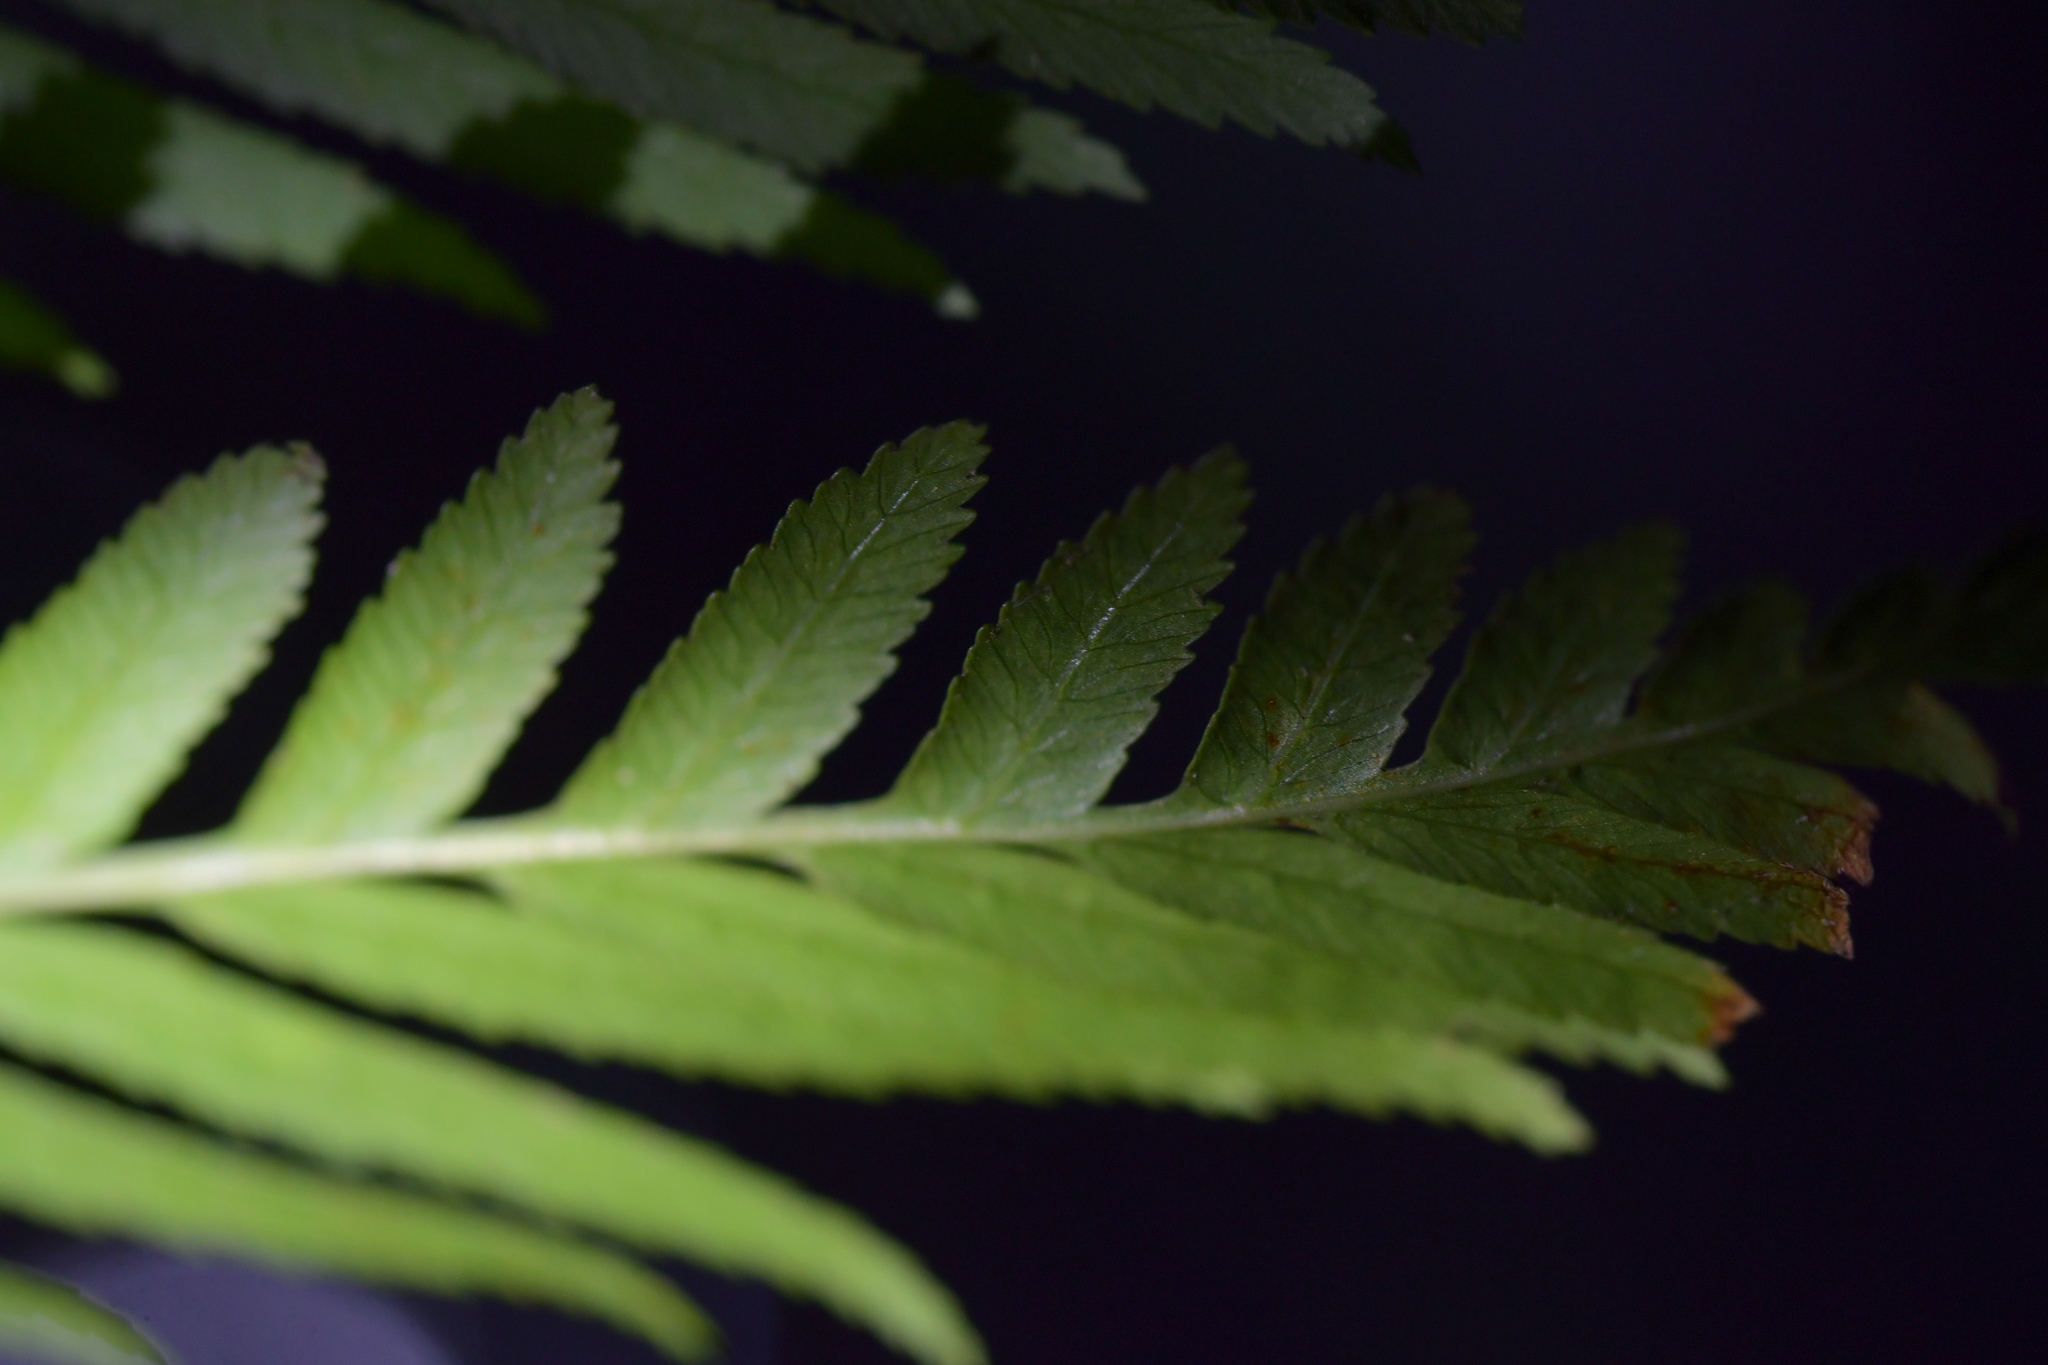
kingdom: Plantae
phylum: Tracheophyta
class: Polypodiopsida
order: Osmundales
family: Osmundaceae
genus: Todea
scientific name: Todea barbara
